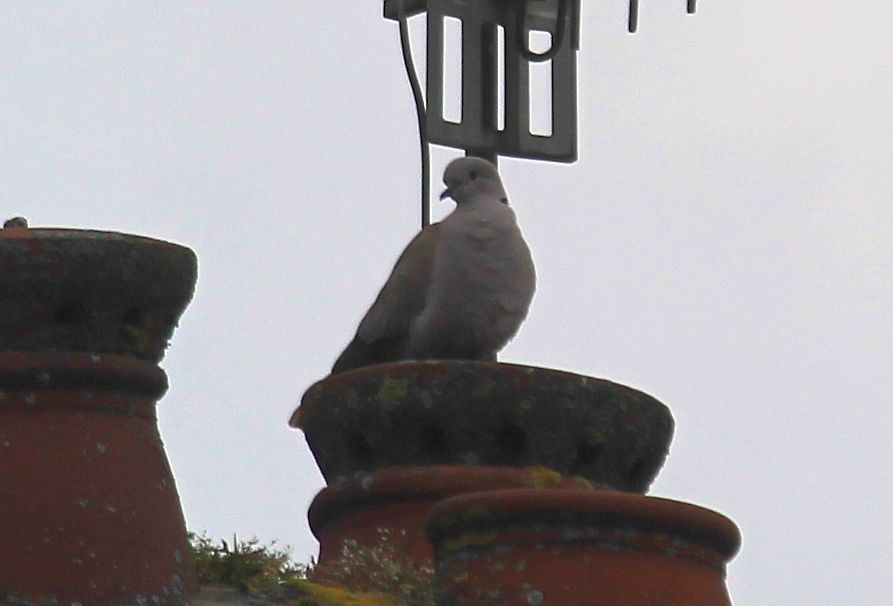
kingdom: Animalia
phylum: Chordata
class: Aves
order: Columbiformes
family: Columbidae
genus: Streptopelia
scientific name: Streptopelia decaocto
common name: Eurasian collared dove
